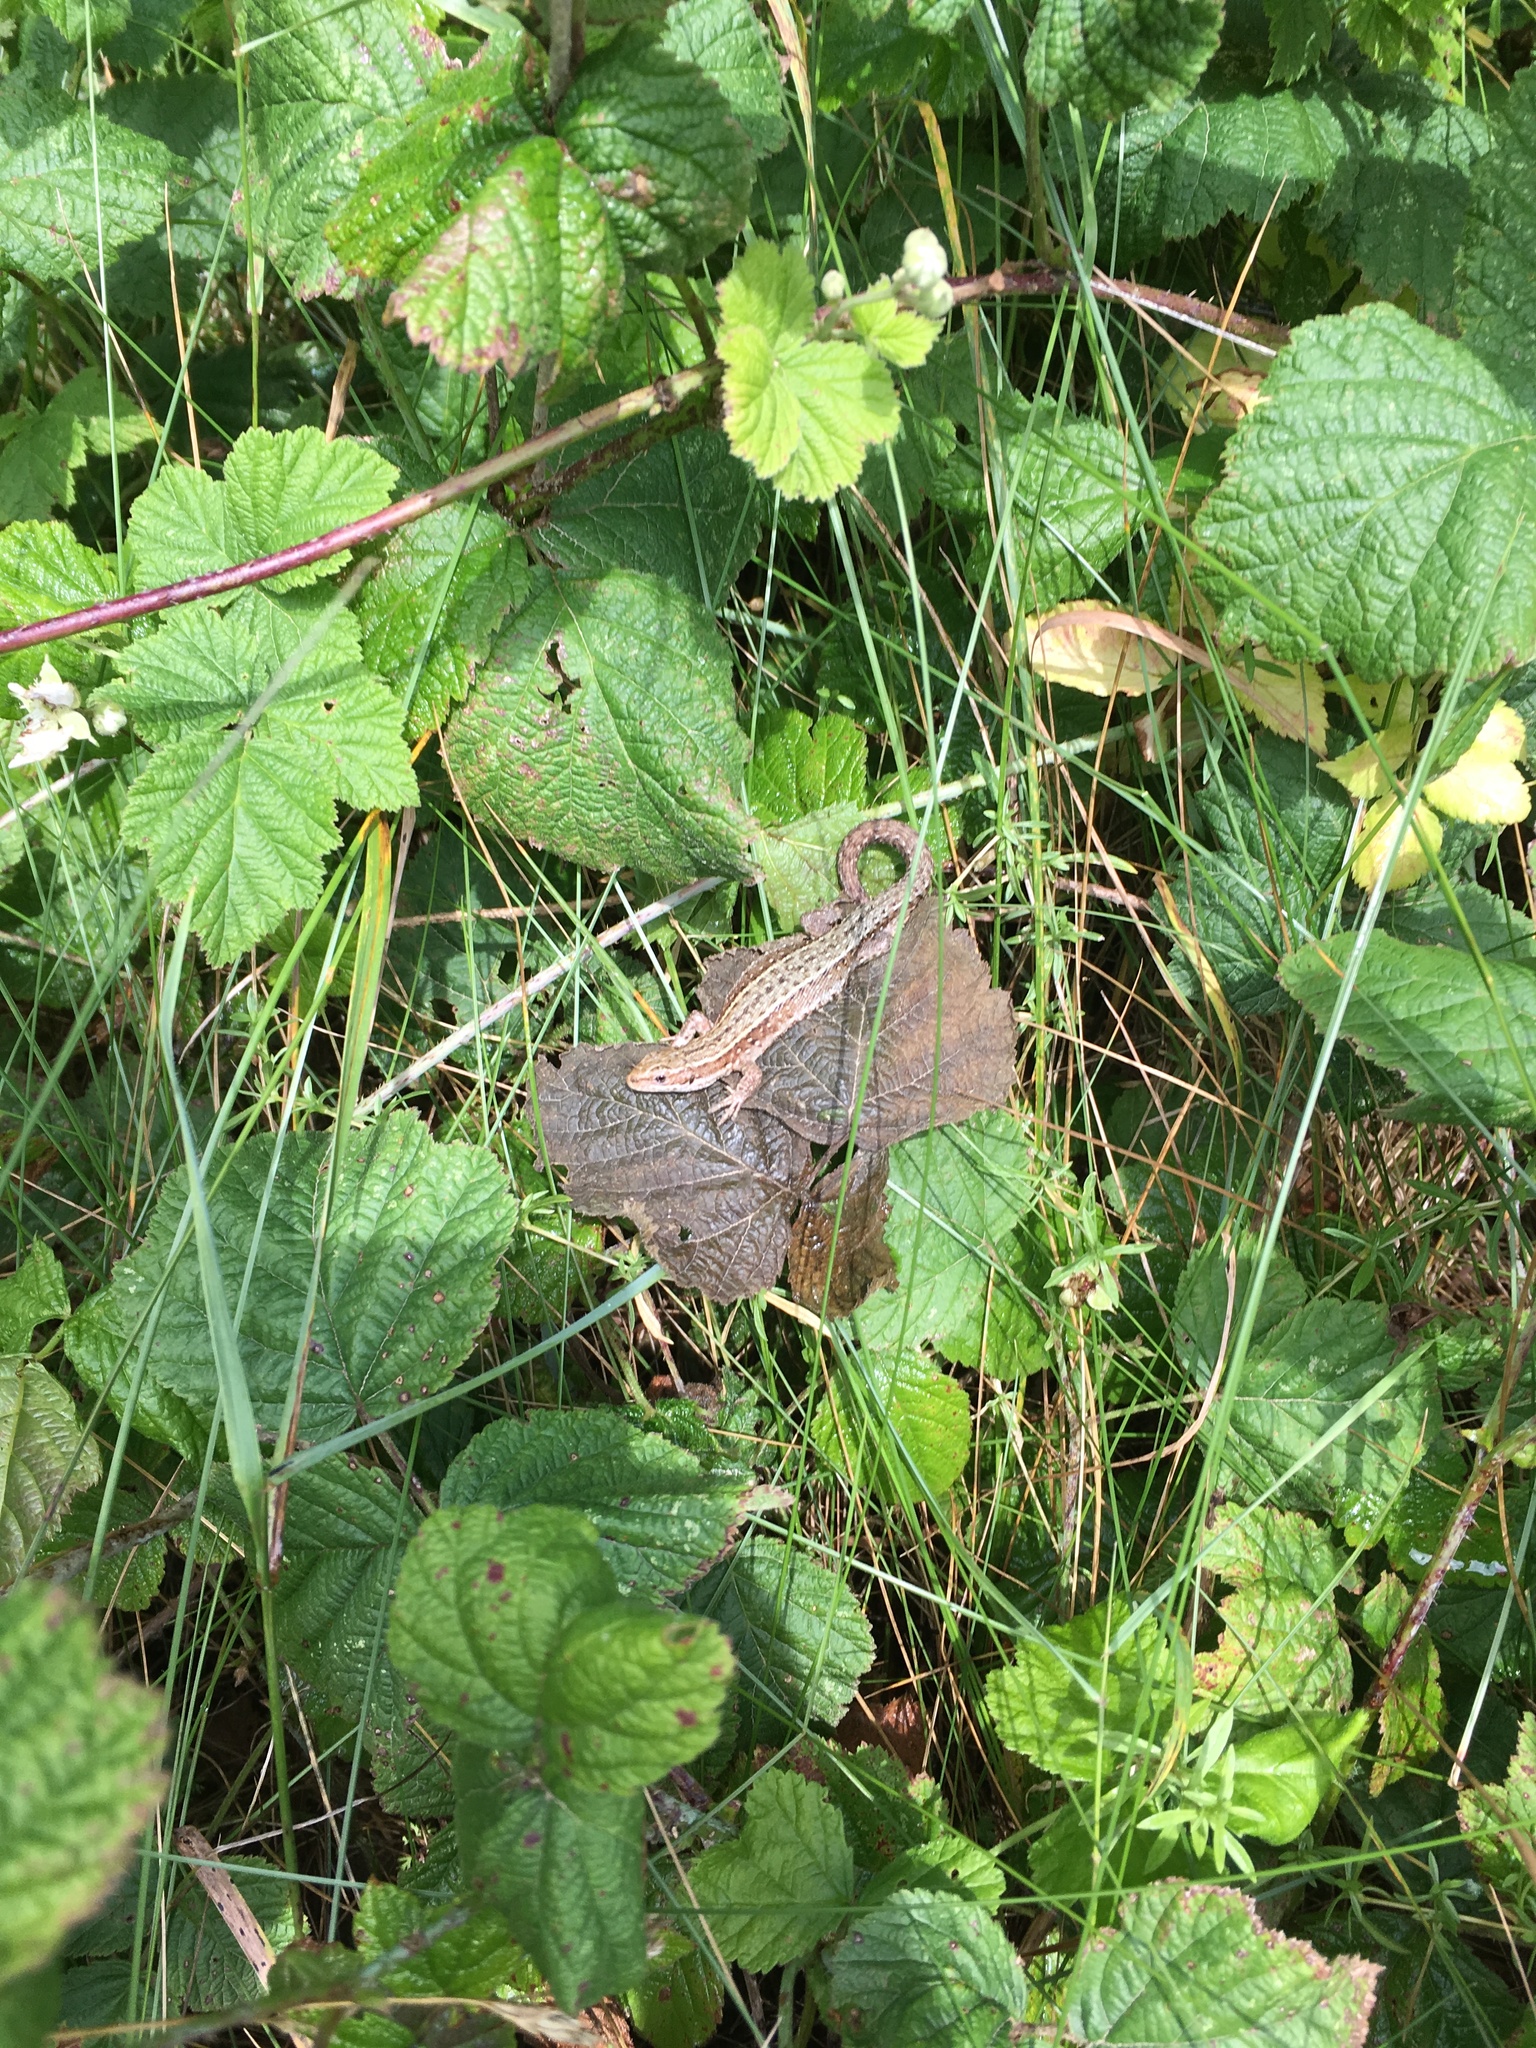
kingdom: Animalia
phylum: Chordata
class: Squamata
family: Lacertidae
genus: Zootoca
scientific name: Zootoca vivipara
